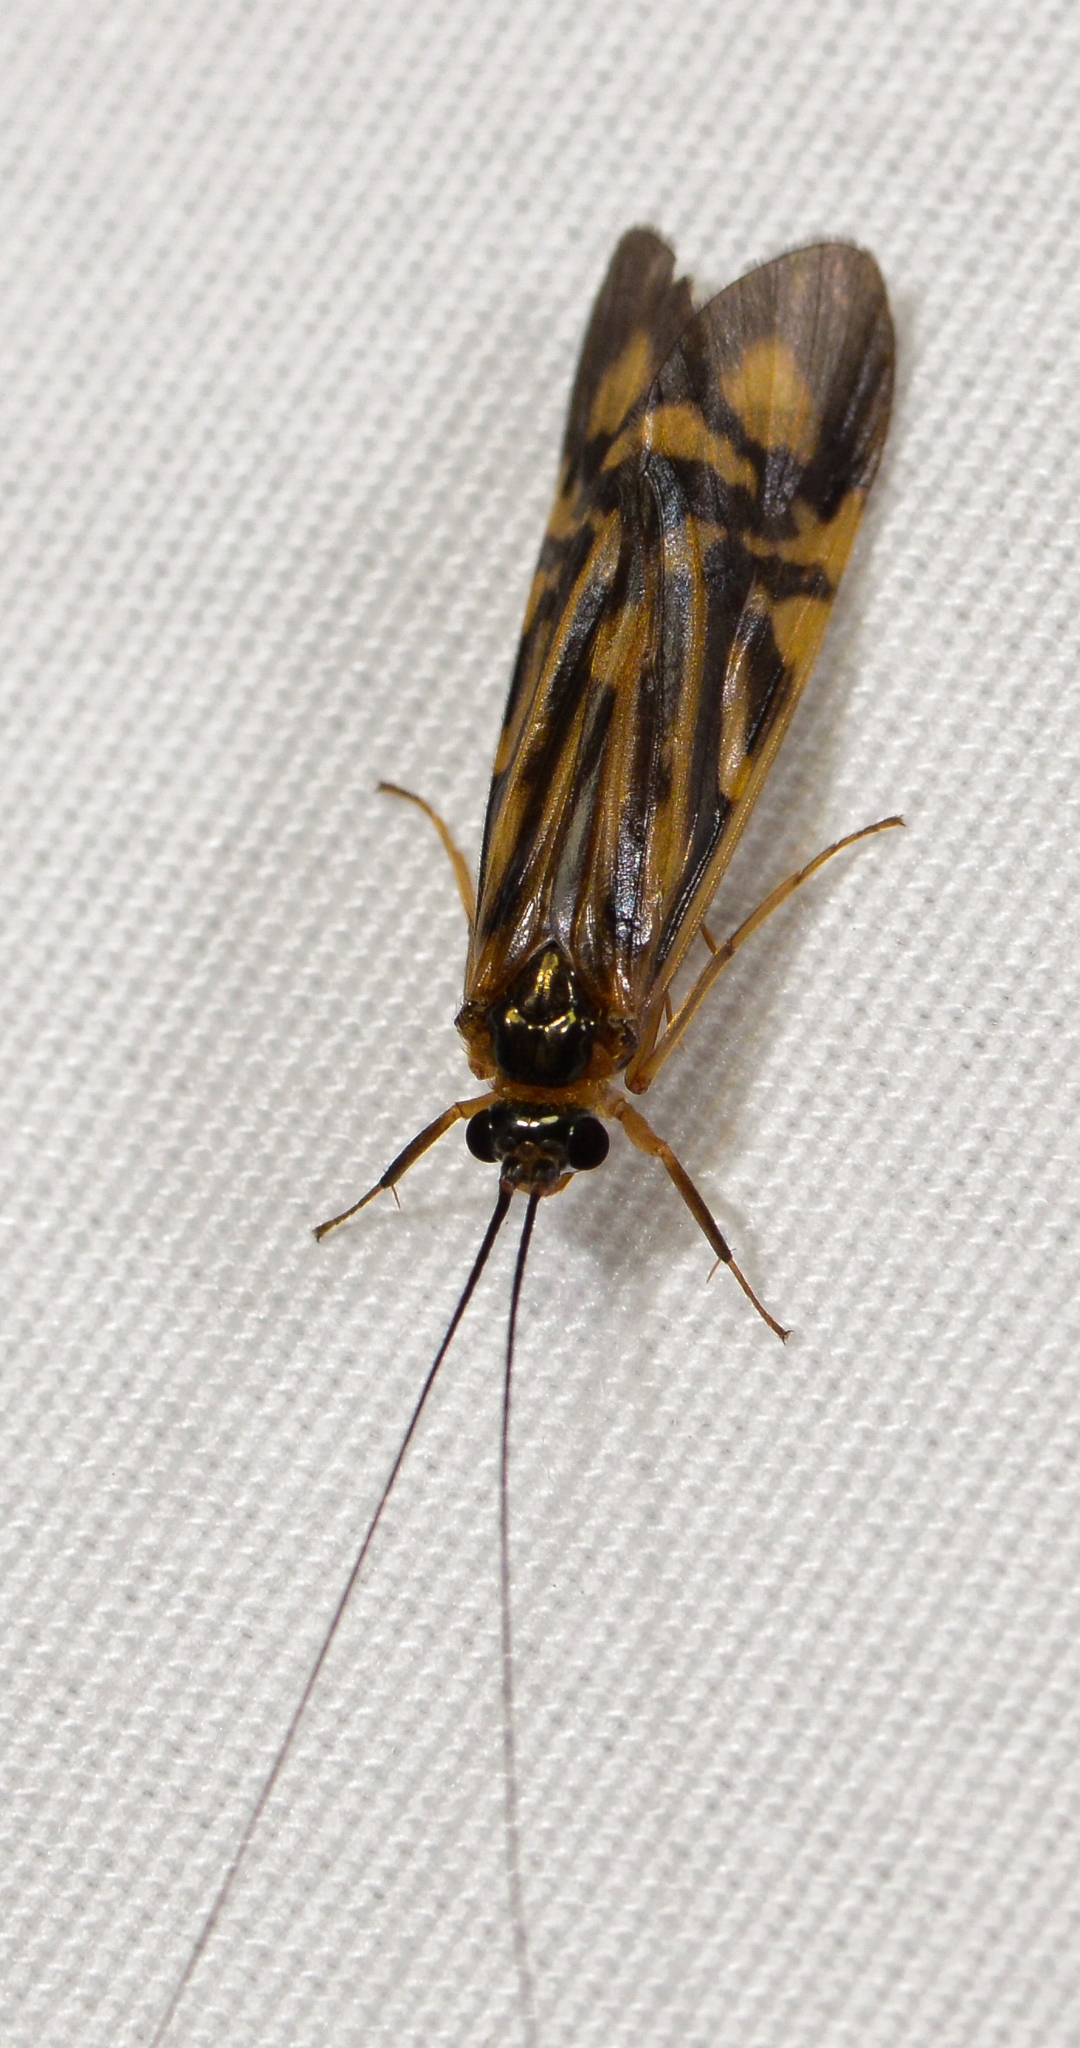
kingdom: Animalia
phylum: Arthropoda
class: Insecta
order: Trichoptera
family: Hydropsychidae
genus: Macrostemum
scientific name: Macrostemum zebratum
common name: Zebra caddisfly
